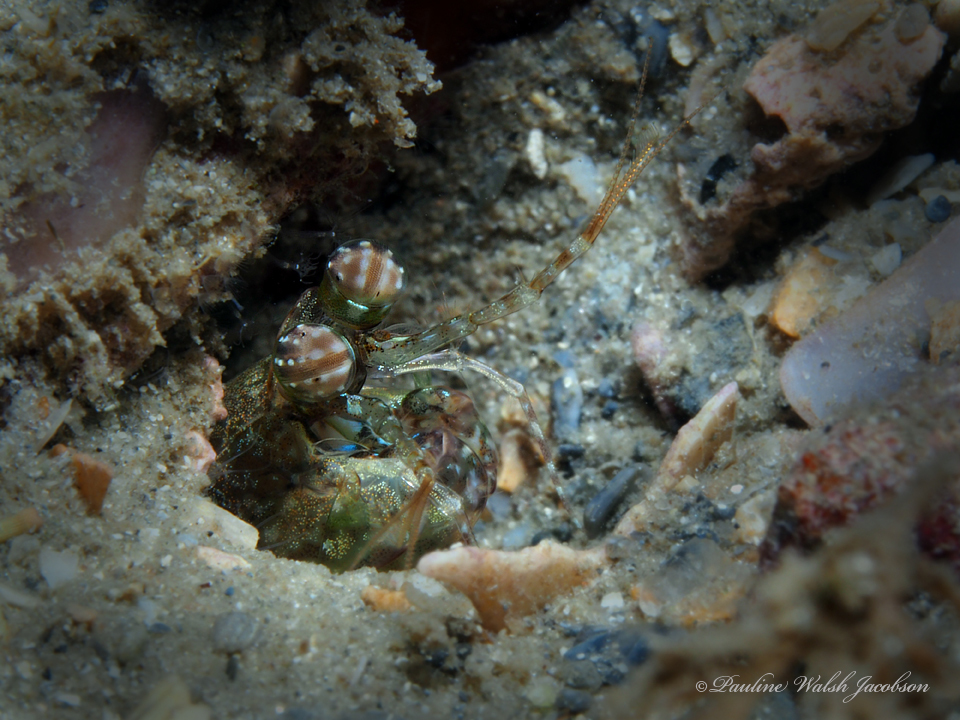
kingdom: Animalia
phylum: Arthropoda
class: Malacostraca
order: Stomatopoda
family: Pseudosquillidae
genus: Pseudosquilla
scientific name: Pseudosquilla ciliata
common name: Ciliated false squilla
